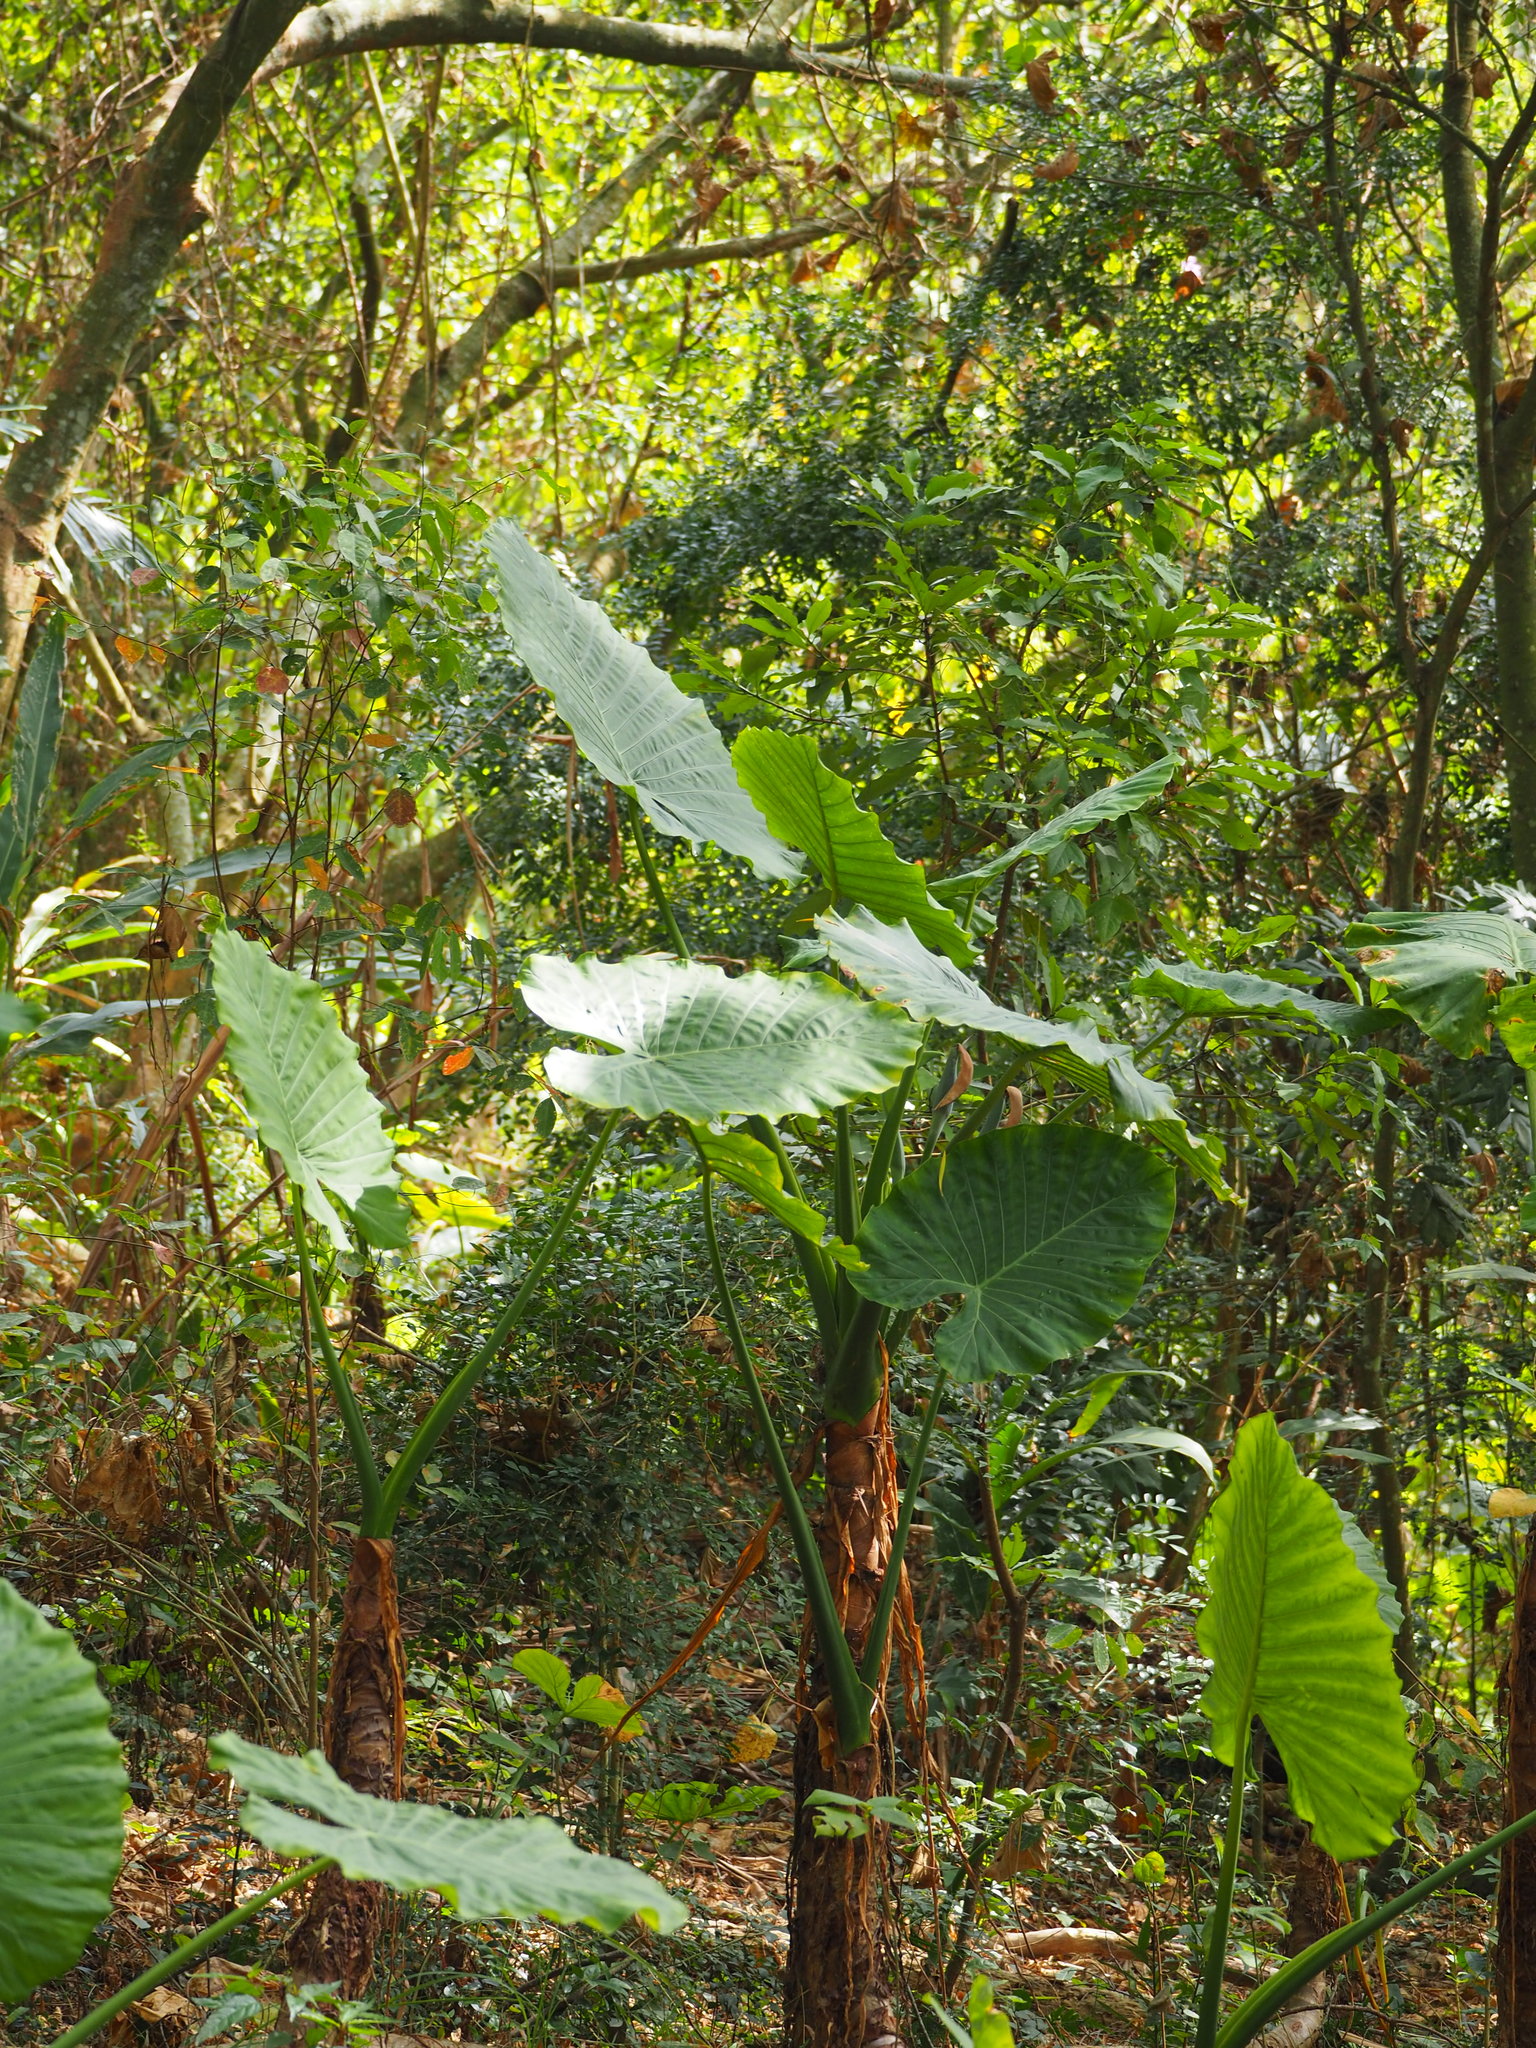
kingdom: Plantae
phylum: Tracheophyta
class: Liliopsida
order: Alismatales
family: Araceae
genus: Alocasia
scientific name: Alocasia odora
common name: Asian taro
